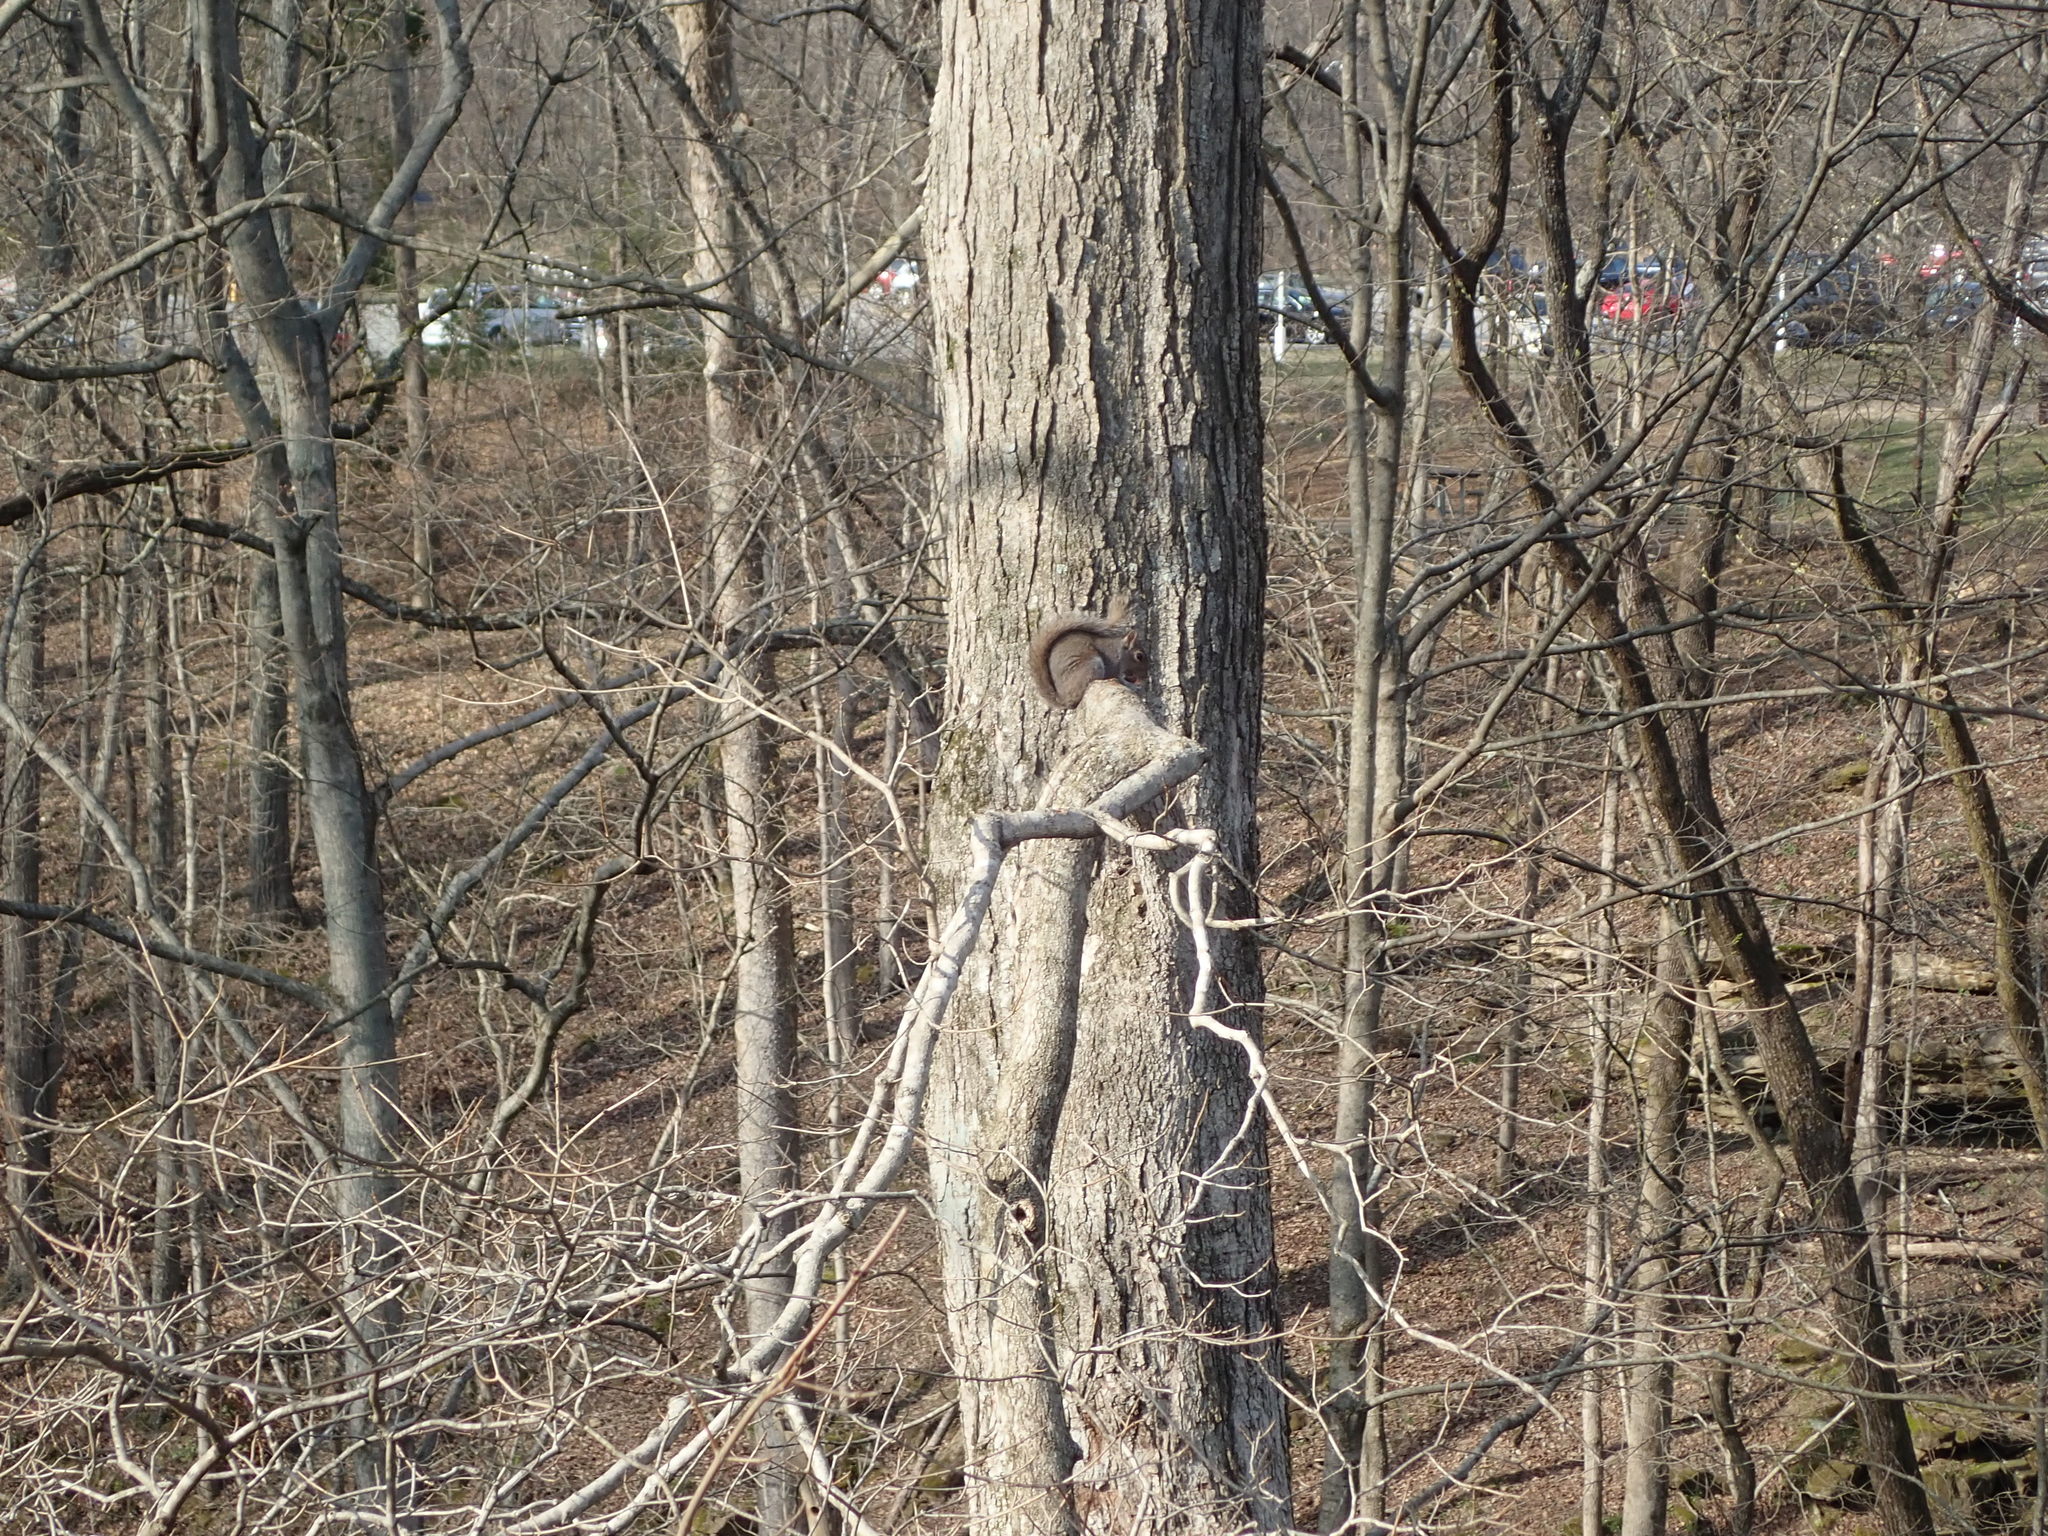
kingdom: Animalia
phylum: Chordata
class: Mammalia
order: Rodentia
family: Sciuridae
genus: Sciurus
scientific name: Sciurus carolinensis
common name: Eastern gray squirrel
